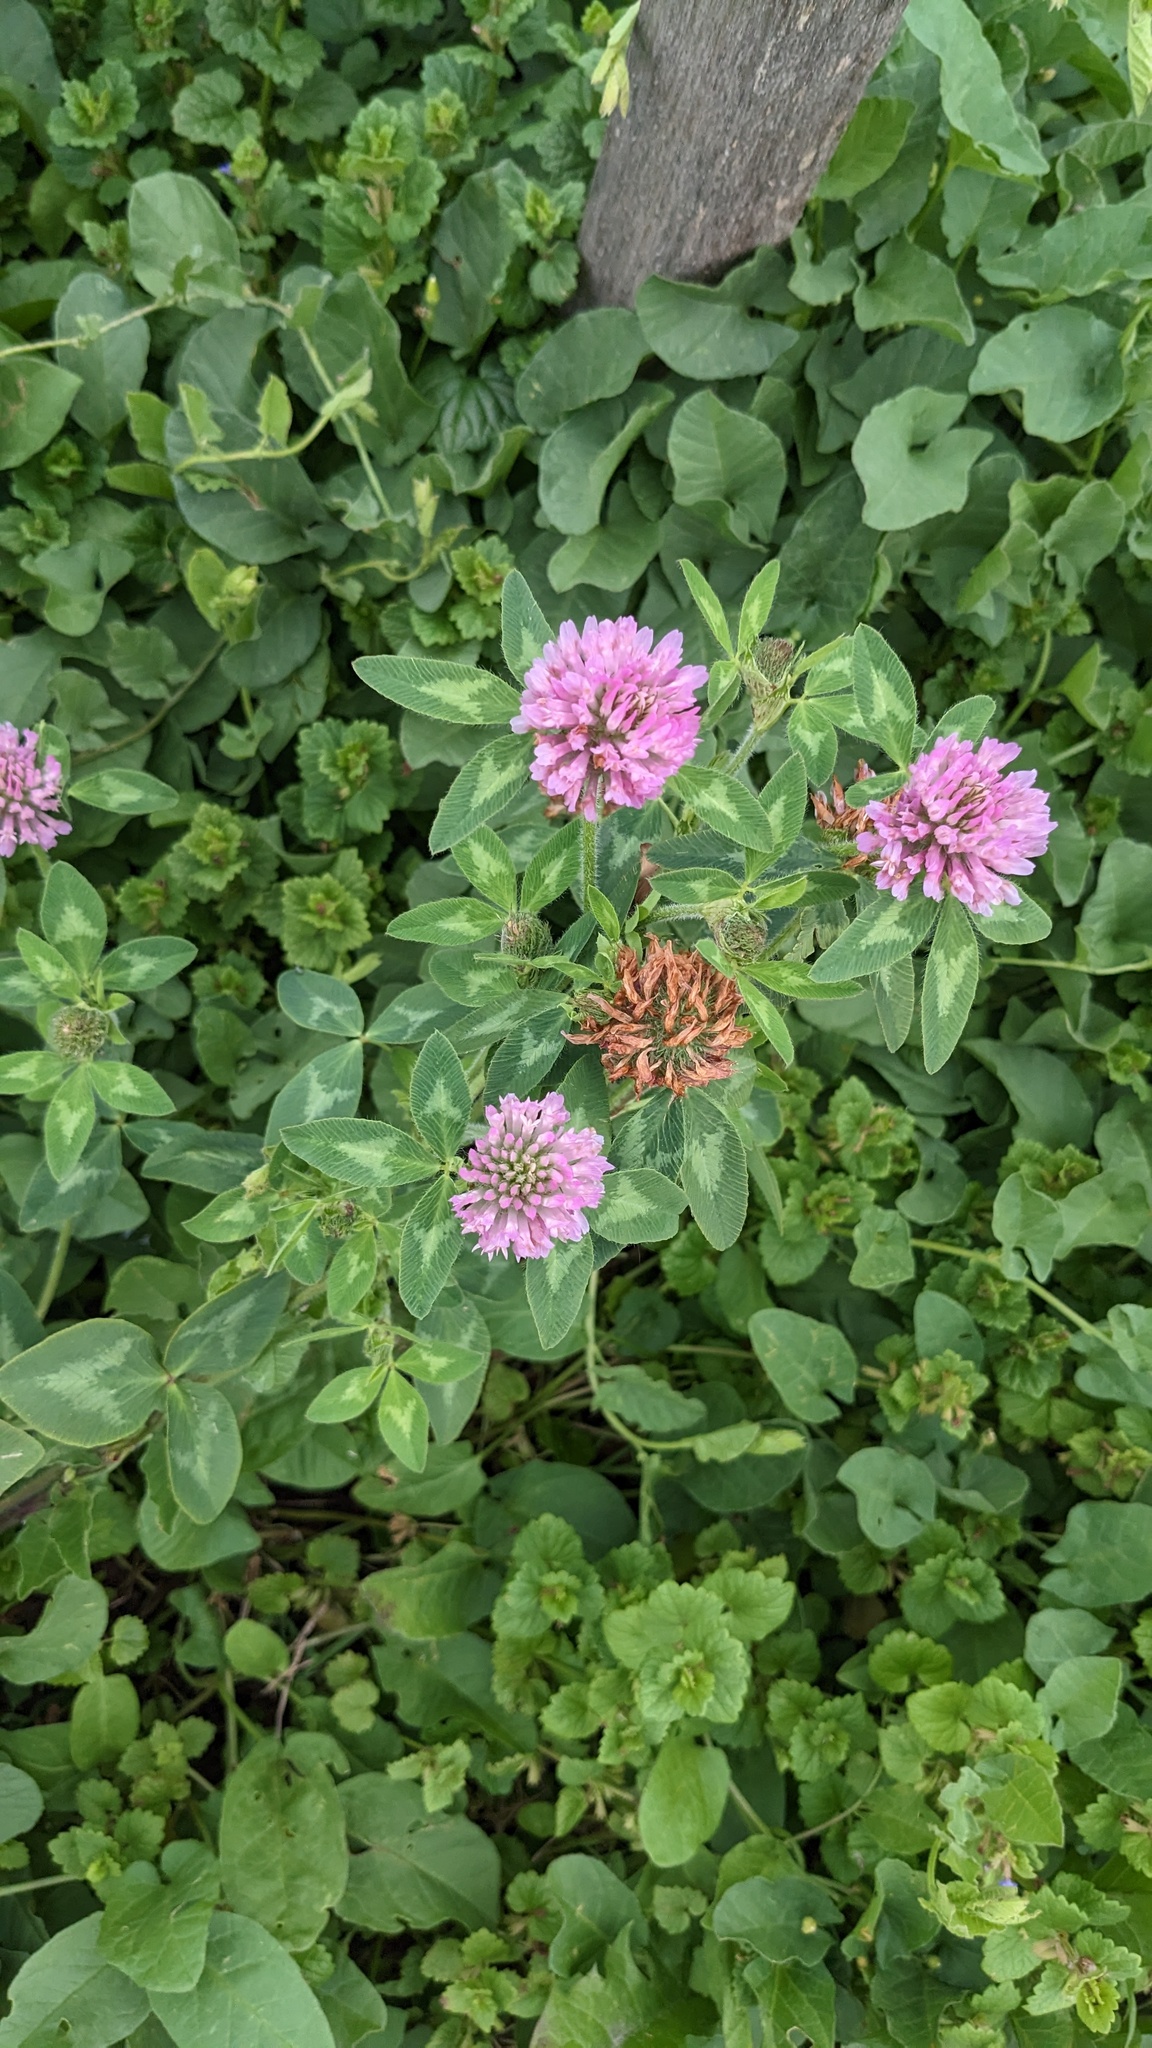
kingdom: Plantae
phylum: Tracheophyta
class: Magnoliopsida
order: Fabales
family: Fabaceae
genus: Trifolium
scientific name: Trifolium pratense
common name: Red clover
